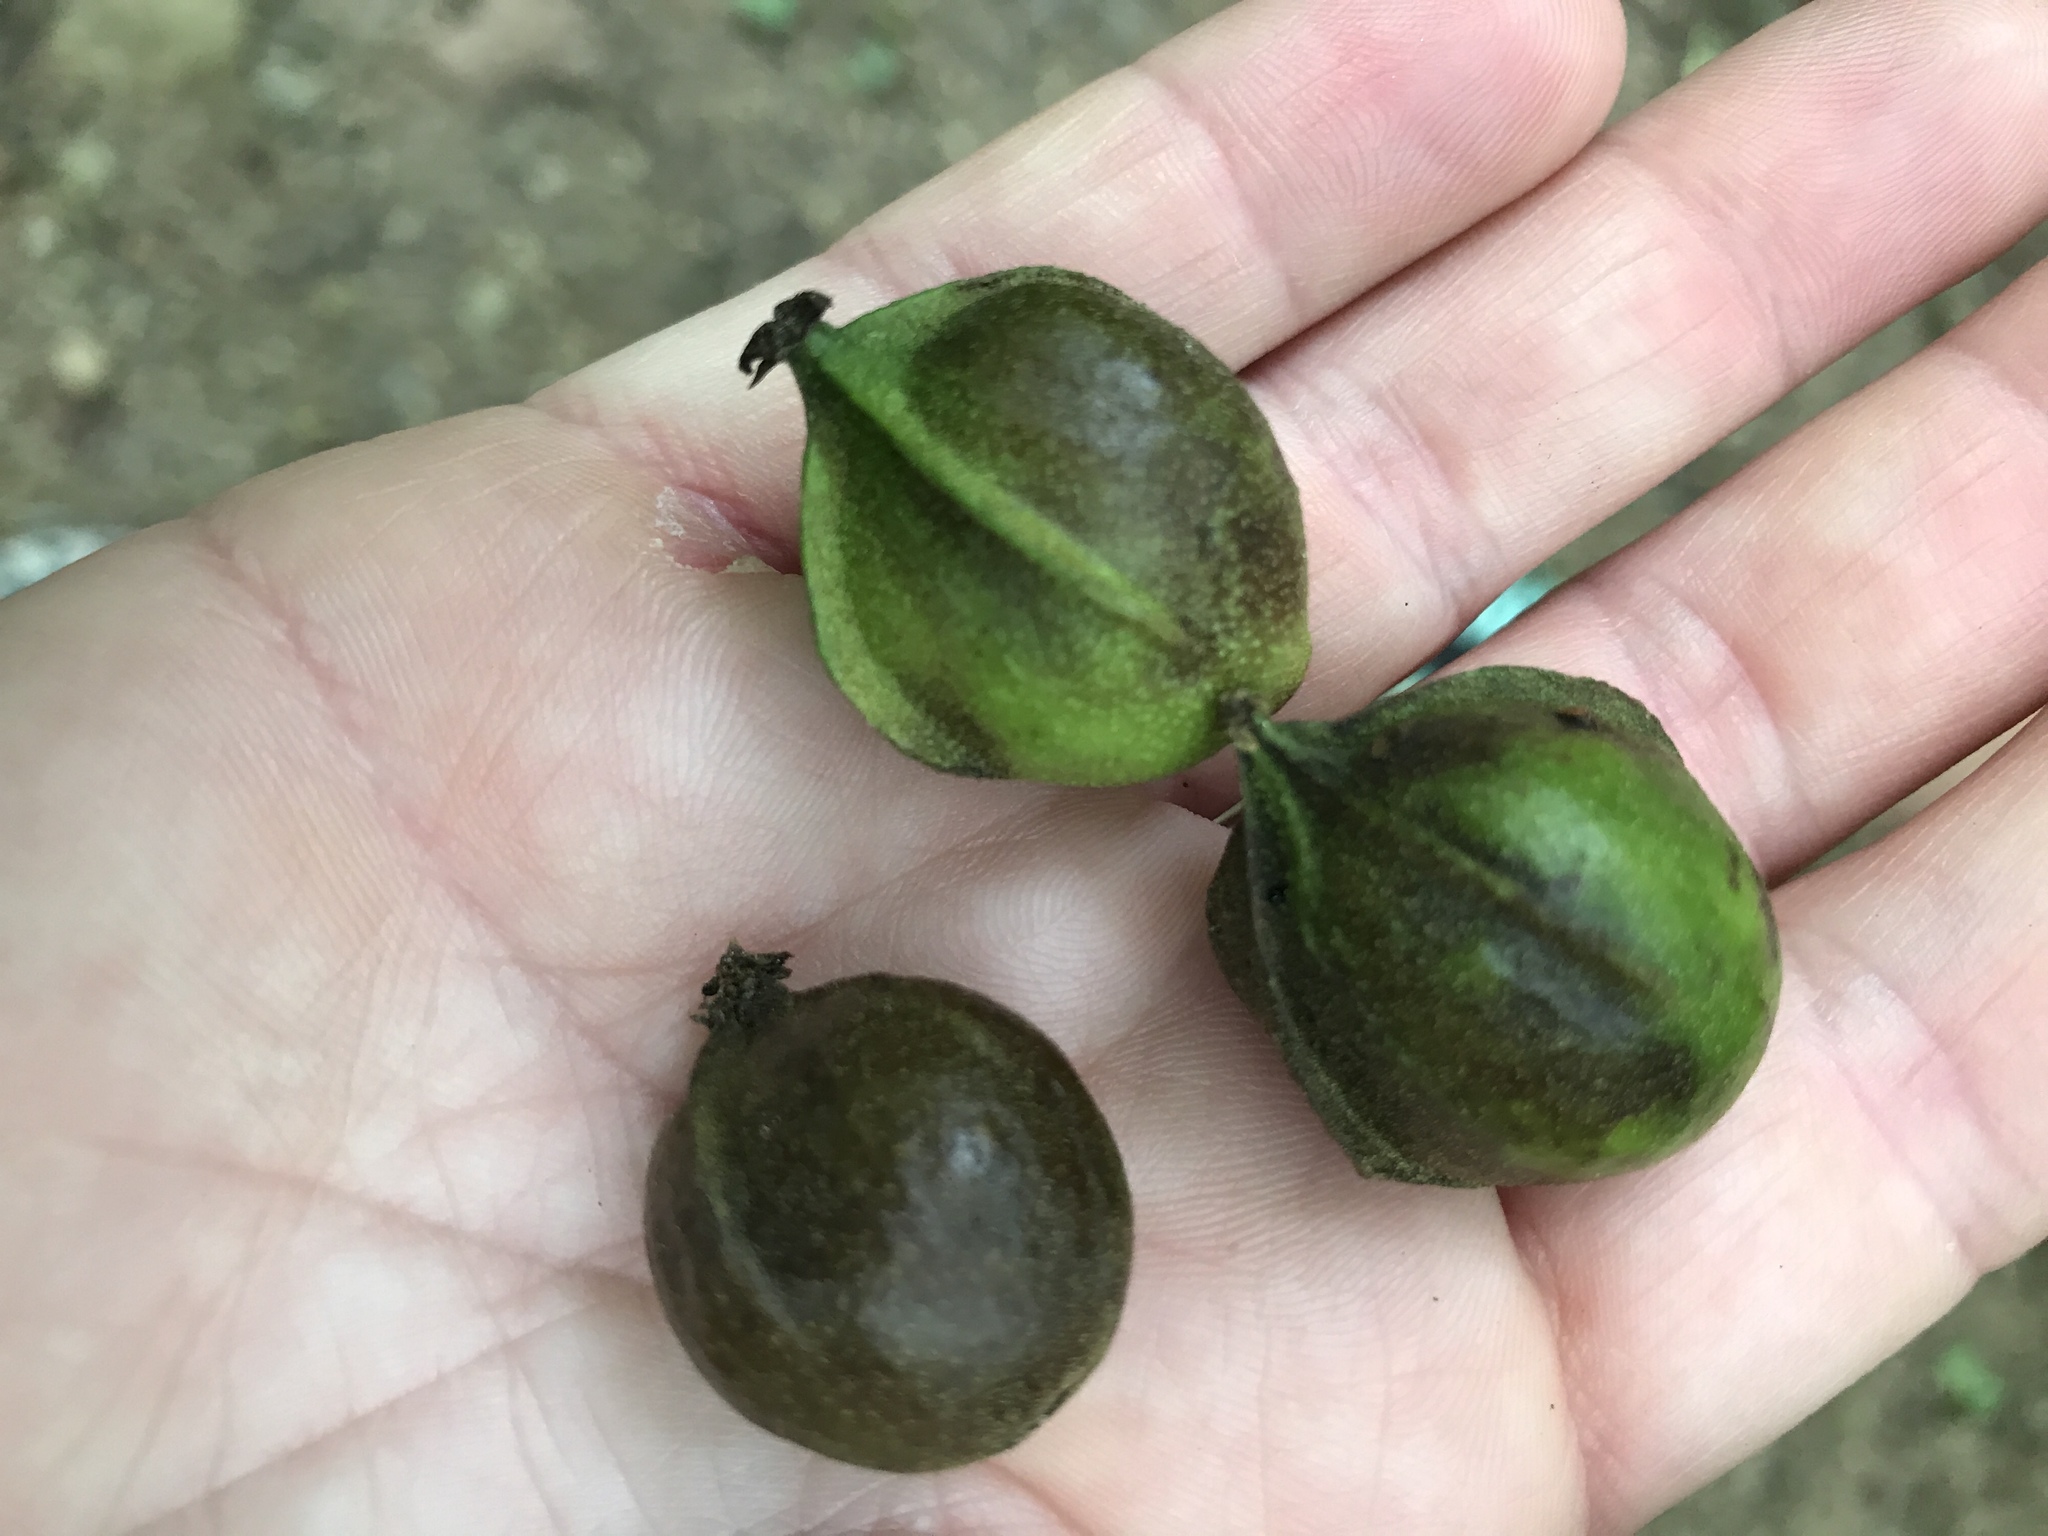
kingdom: Plantae
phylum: Tracheophyta
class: Magnoliopsida
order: Fagales
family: Juglandaceae
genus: Carya
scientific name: Carya cordiformis
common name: Bitternut hickory
